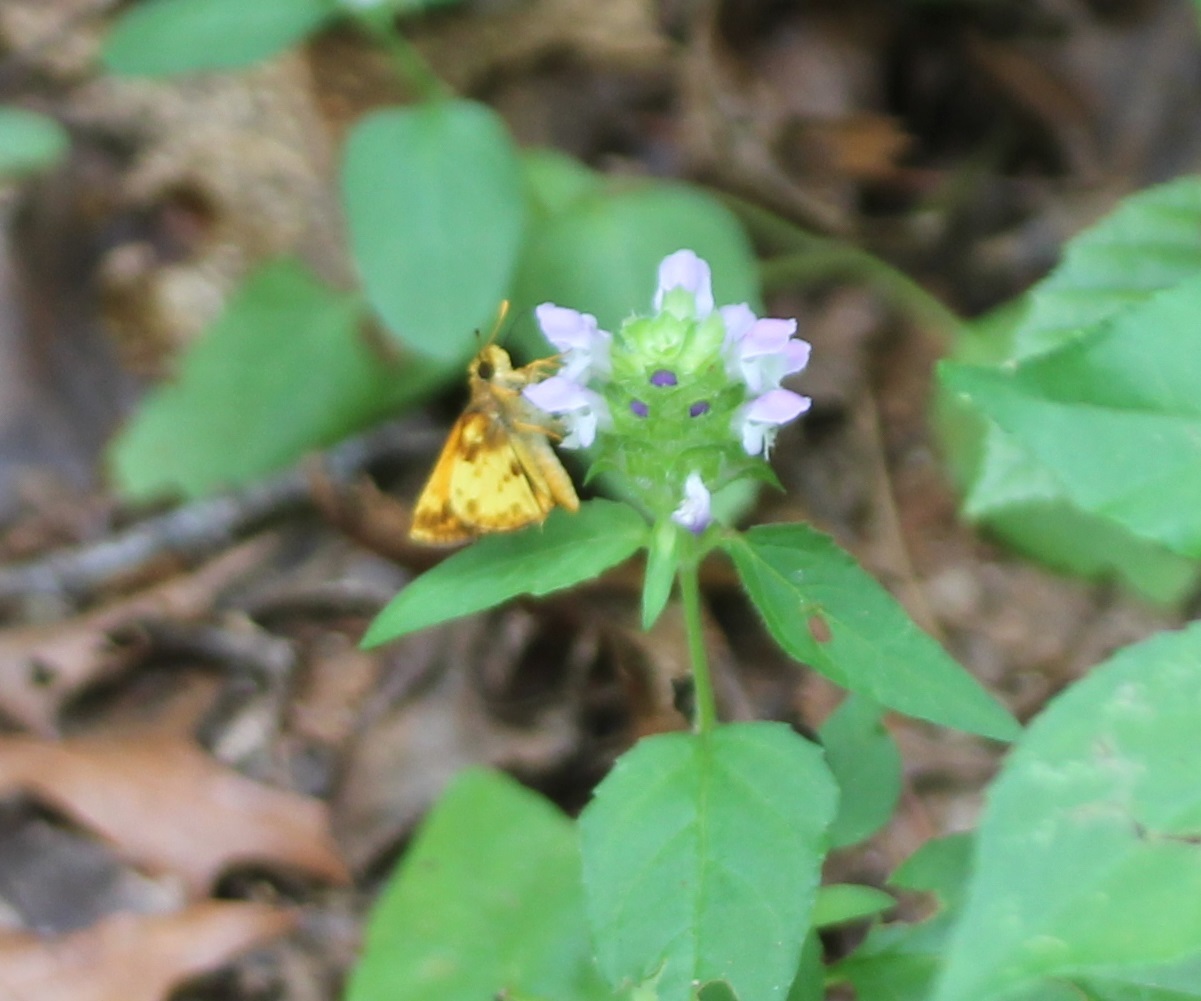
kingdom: Animalia
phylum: Arthropoda
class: Insecta
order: Lepidoptera
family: Hesperiidae
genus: Lon
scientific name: Lon zabulon
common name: Zabulon skipper
